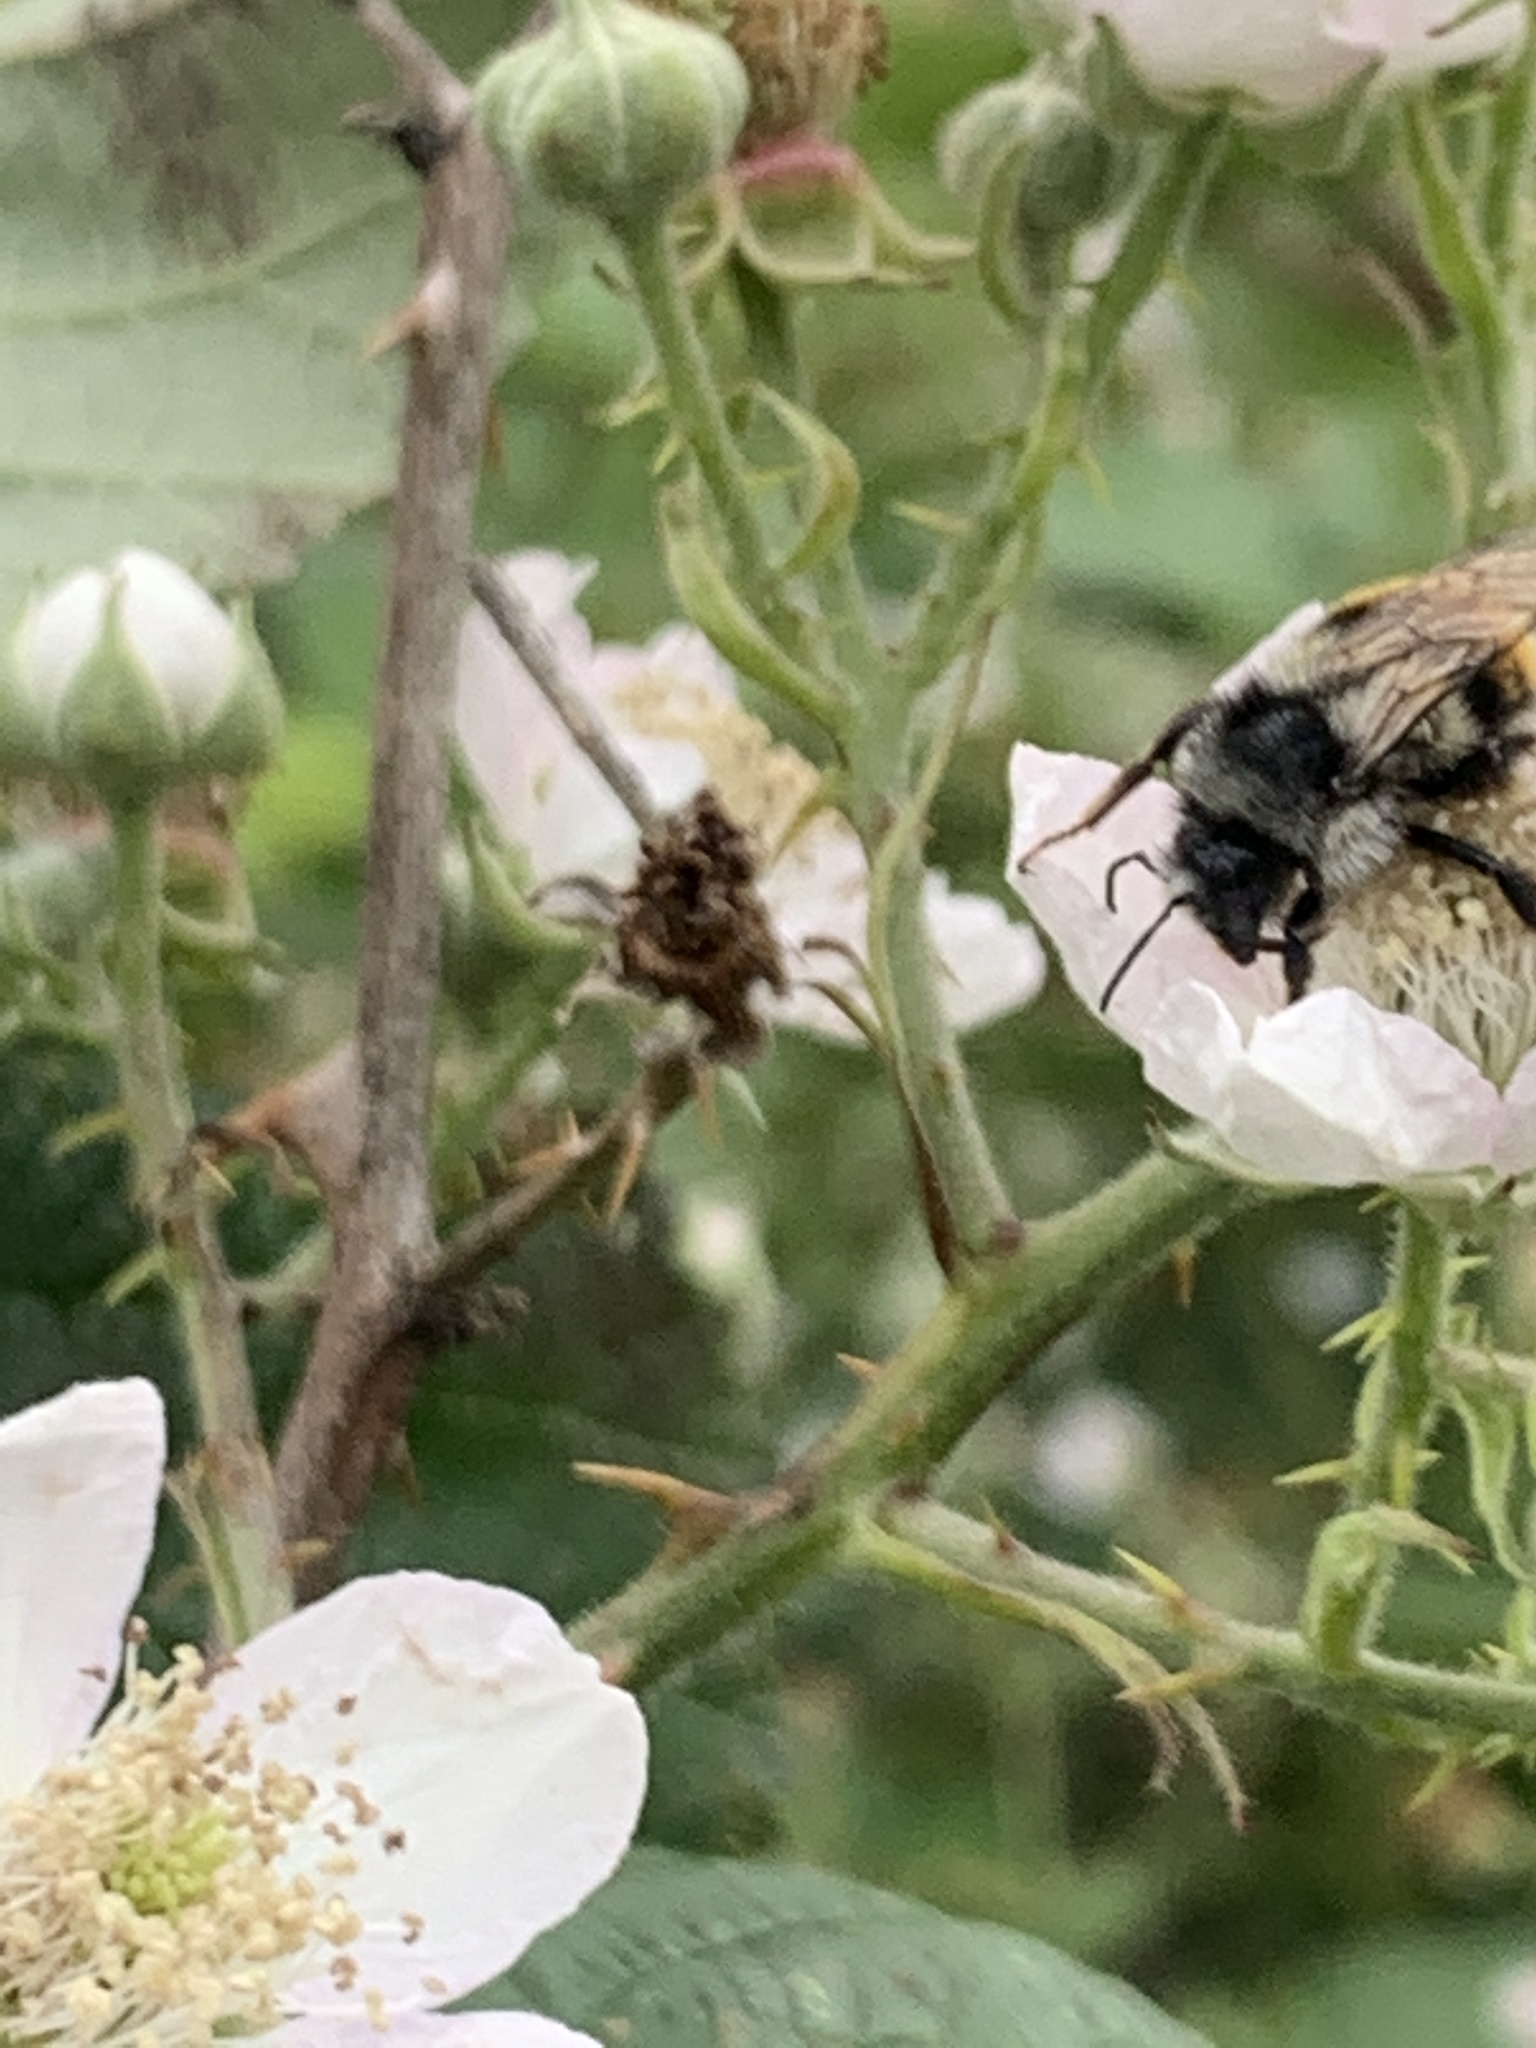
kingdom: Animalia
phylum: Arthropoda
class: Insecta
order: Hymenoptera
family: Apidae
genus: Bombus
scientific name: Bombus vancouverensis
